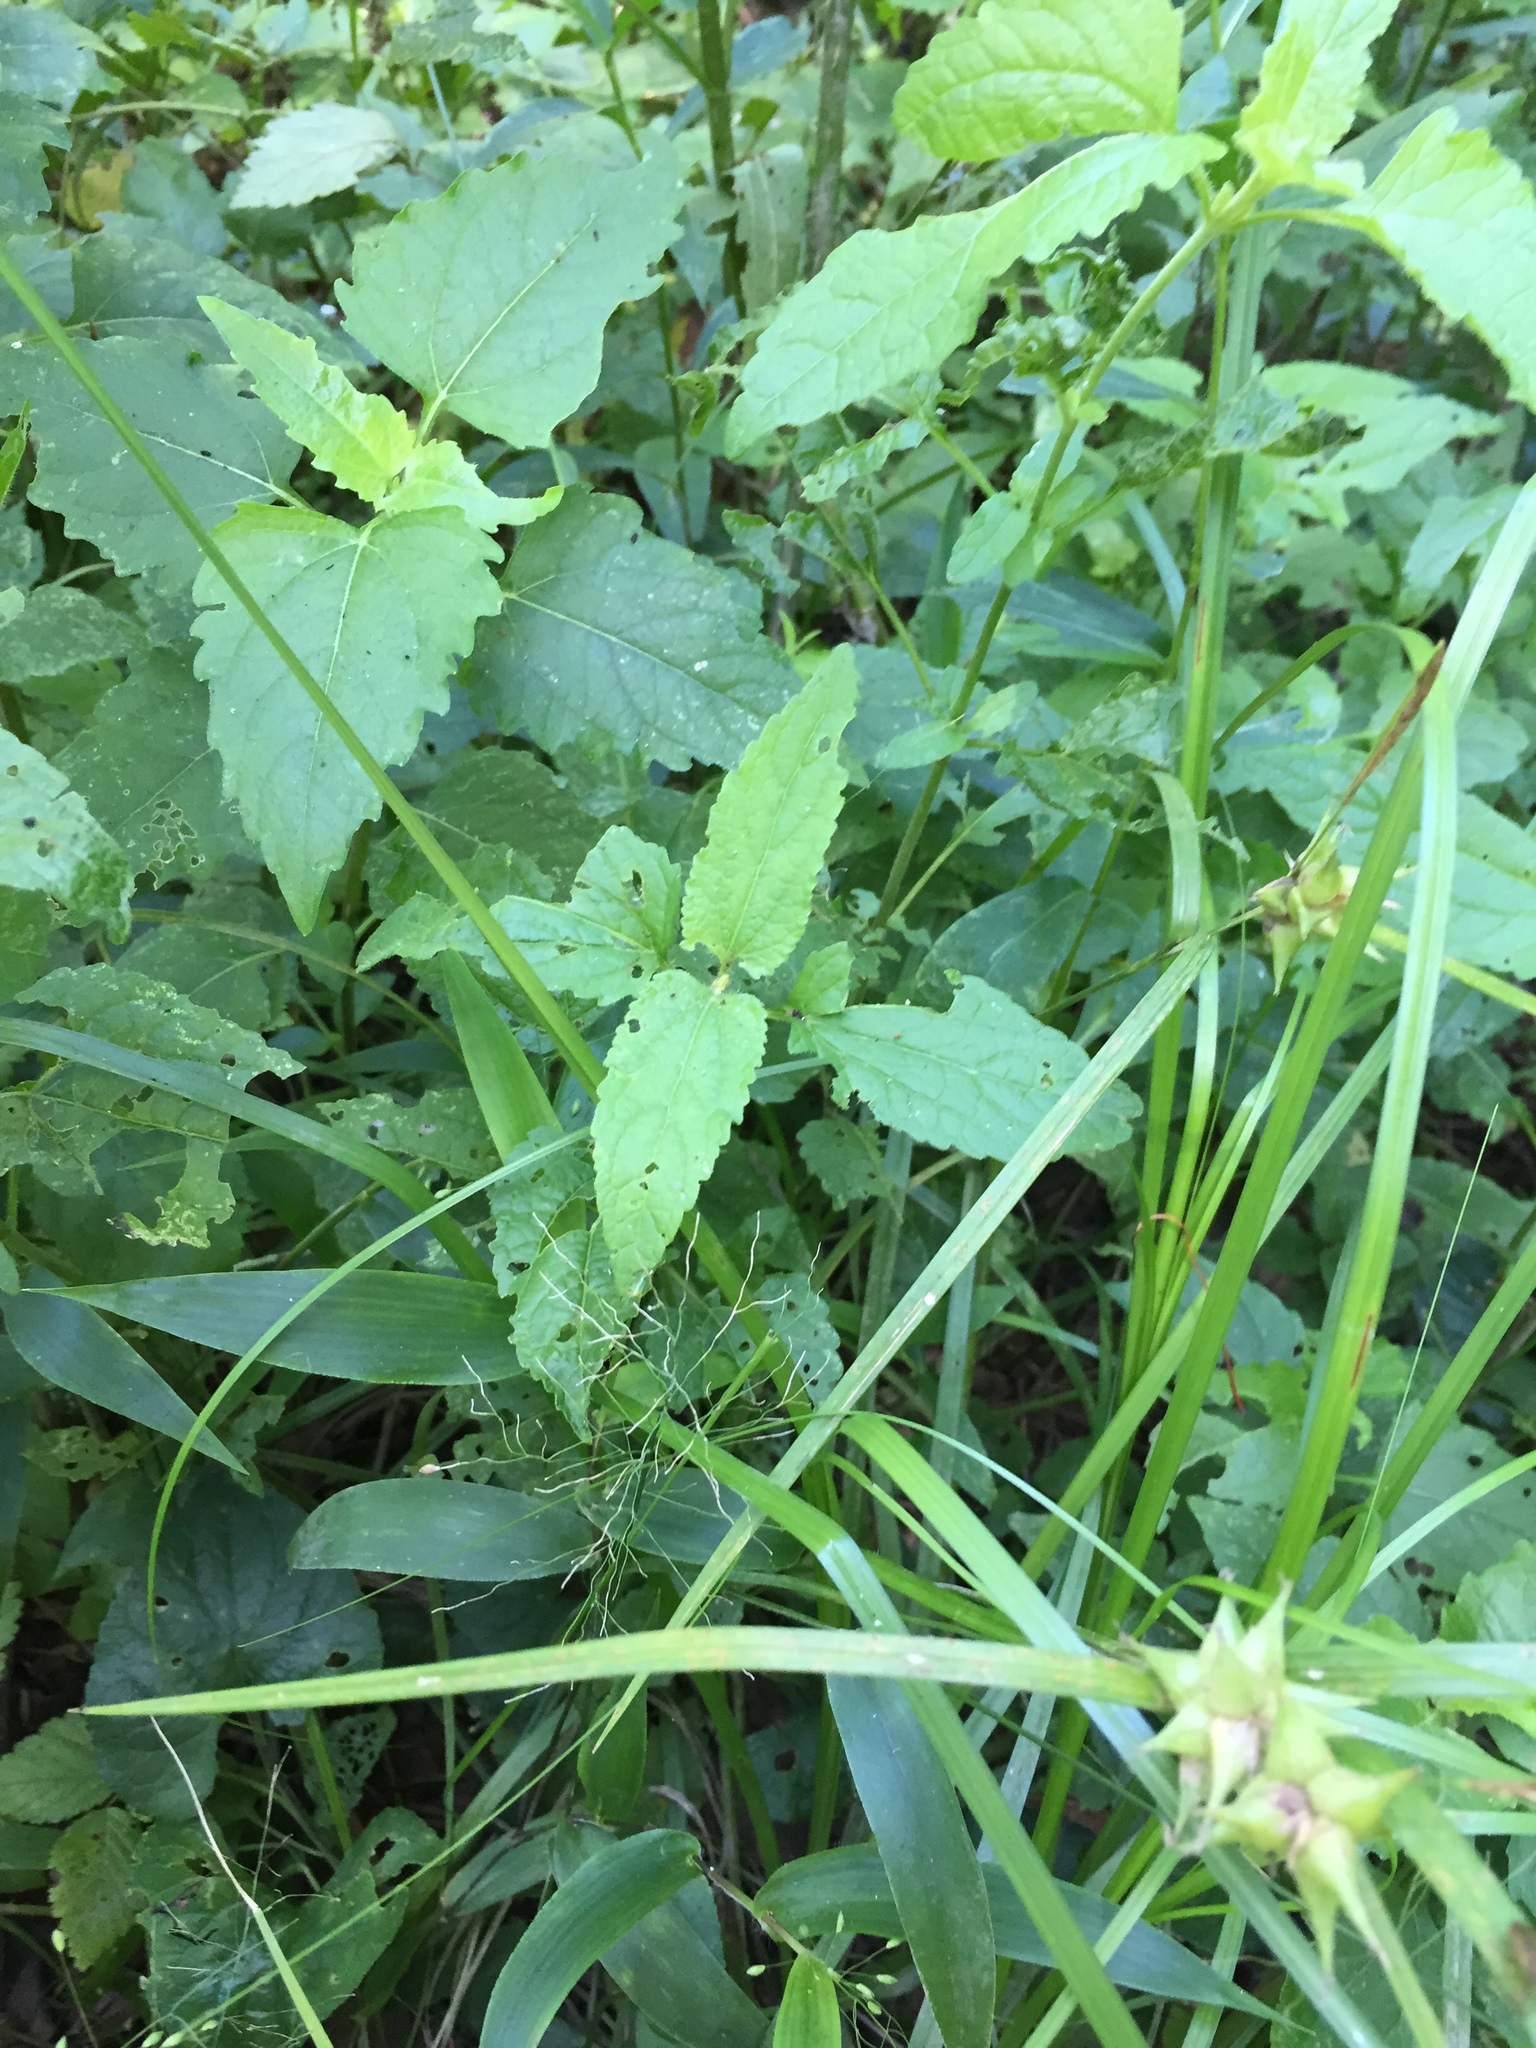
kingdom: Plantae
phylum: Tracheophyta
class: Liliopsida
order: Poales
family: Cyperaceae
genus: Carex
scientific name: Carex intumescens
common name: Greater bladder sedge
